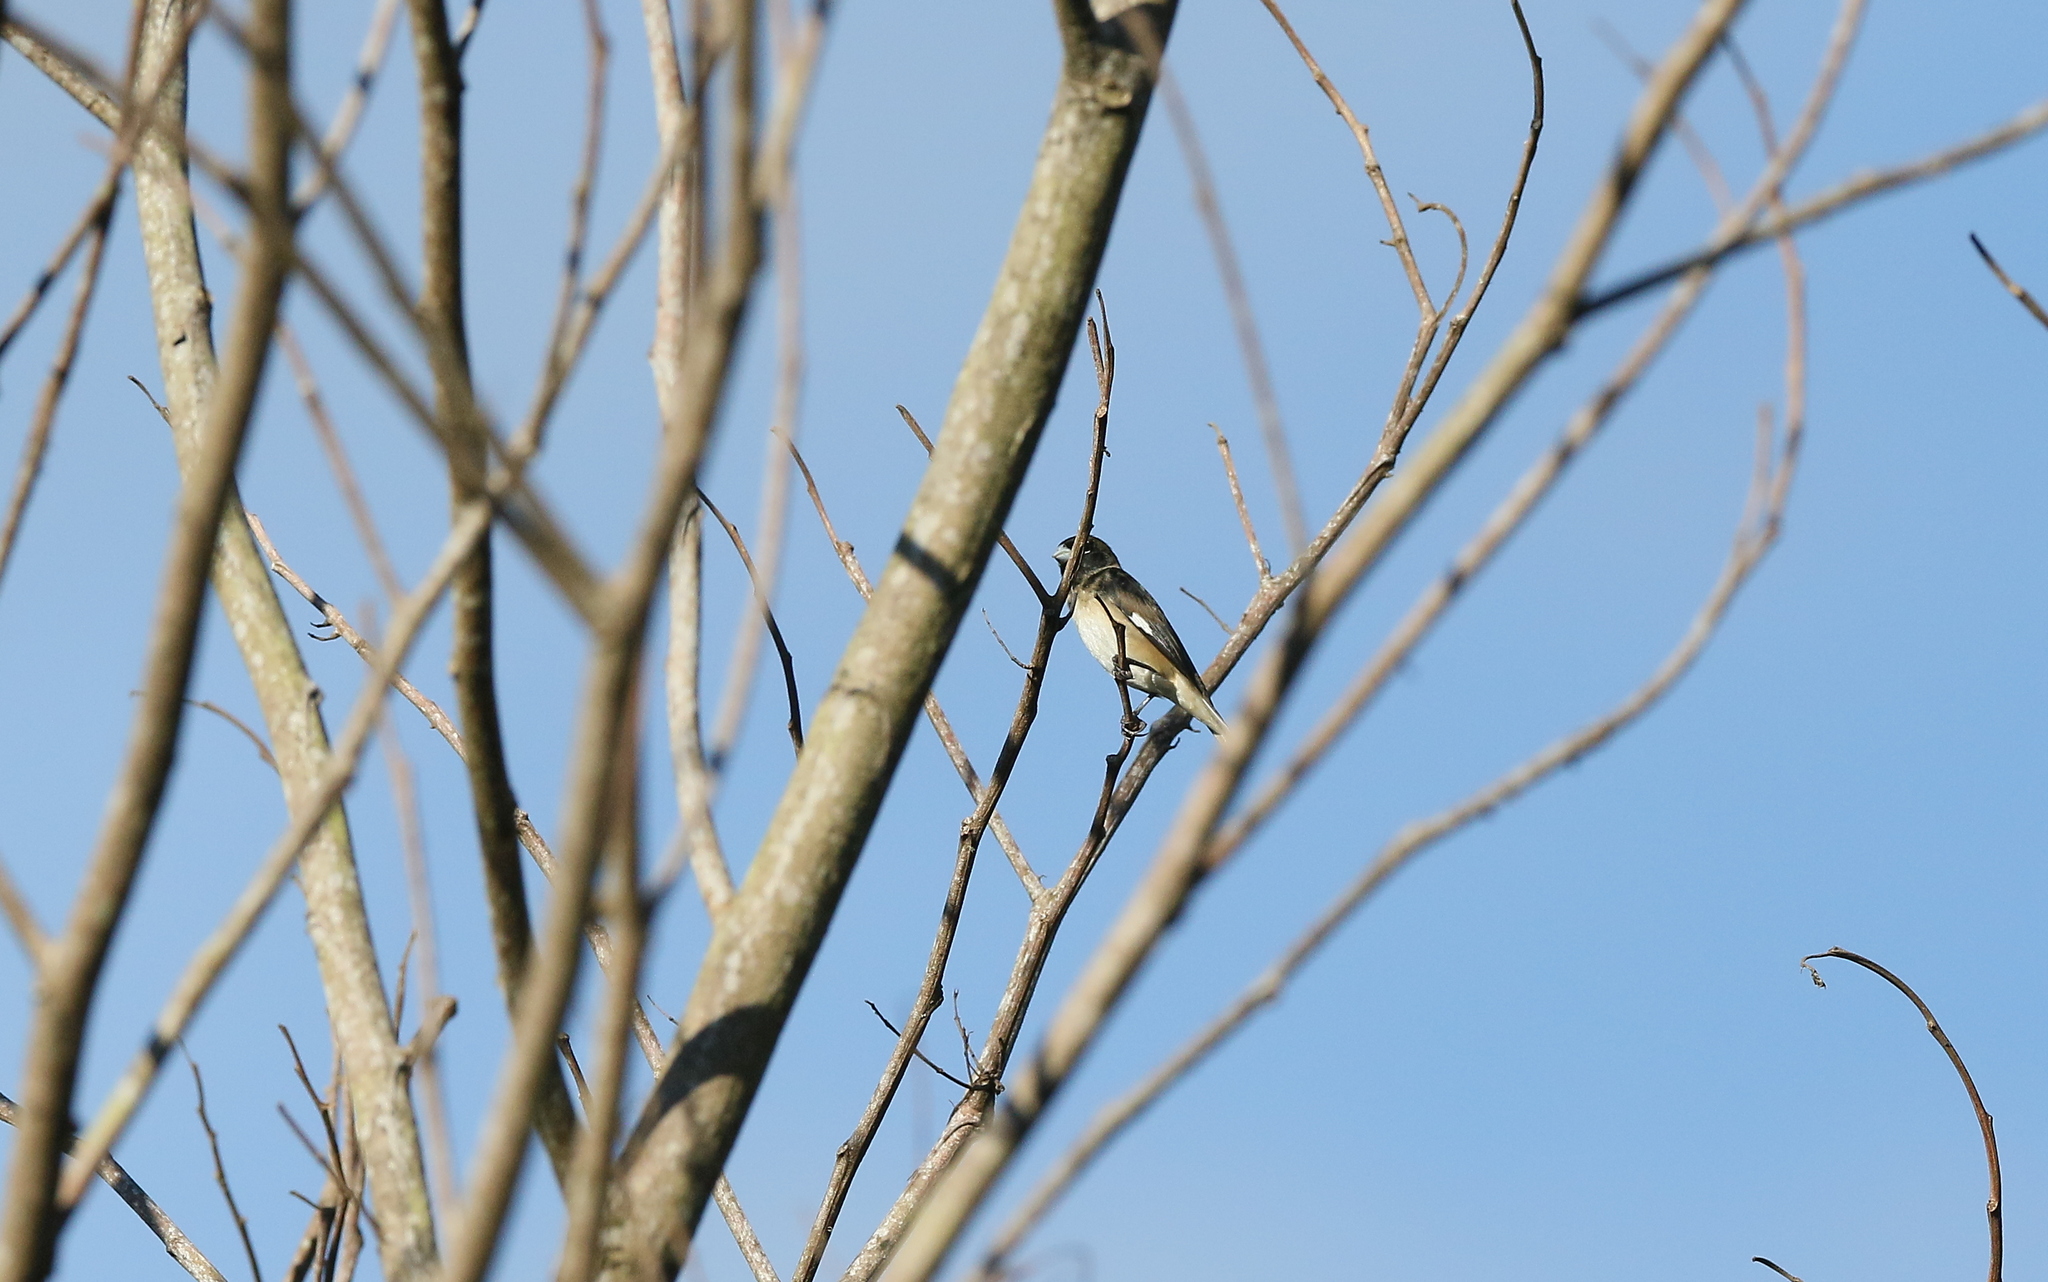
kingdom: Animalia
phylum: Chordata
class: Aves
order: Passeriformes
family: Thraupidae
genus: Sporophila
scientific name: Sporophila luctuosa
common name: Black-and-white seedeater
